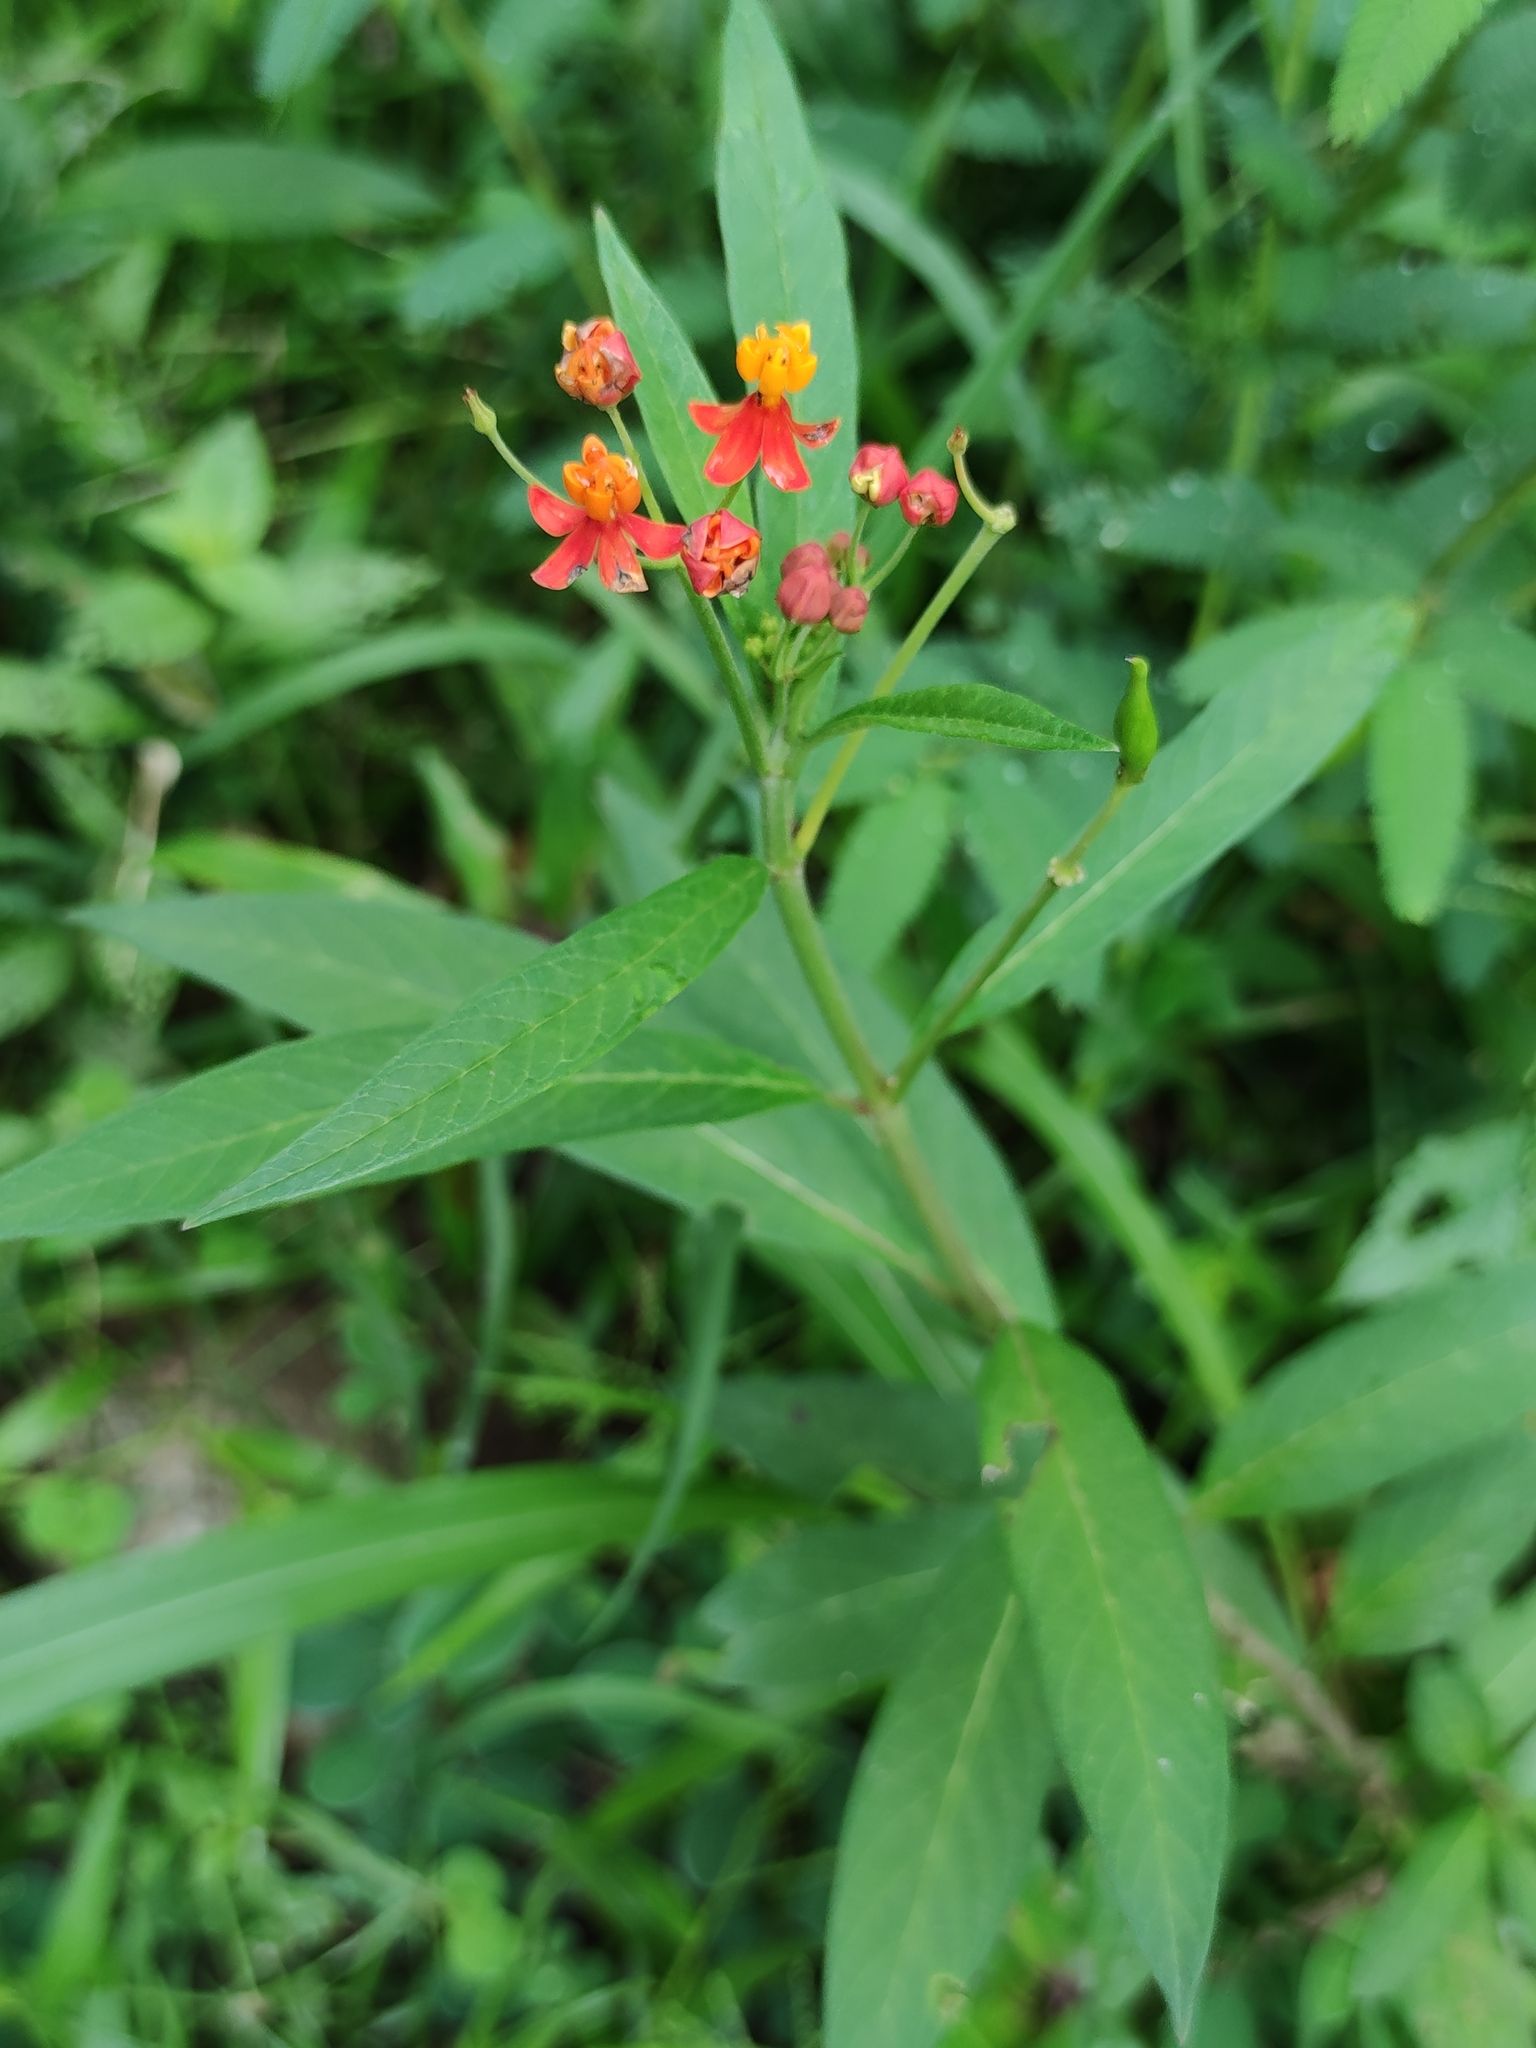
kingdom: Plantae
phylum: Tracheophyta
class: Magnoliopsida
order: Gentianales
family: Apocynaceae
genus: Asclepias
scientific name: Asclepias curassavica
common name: Bloodflower
